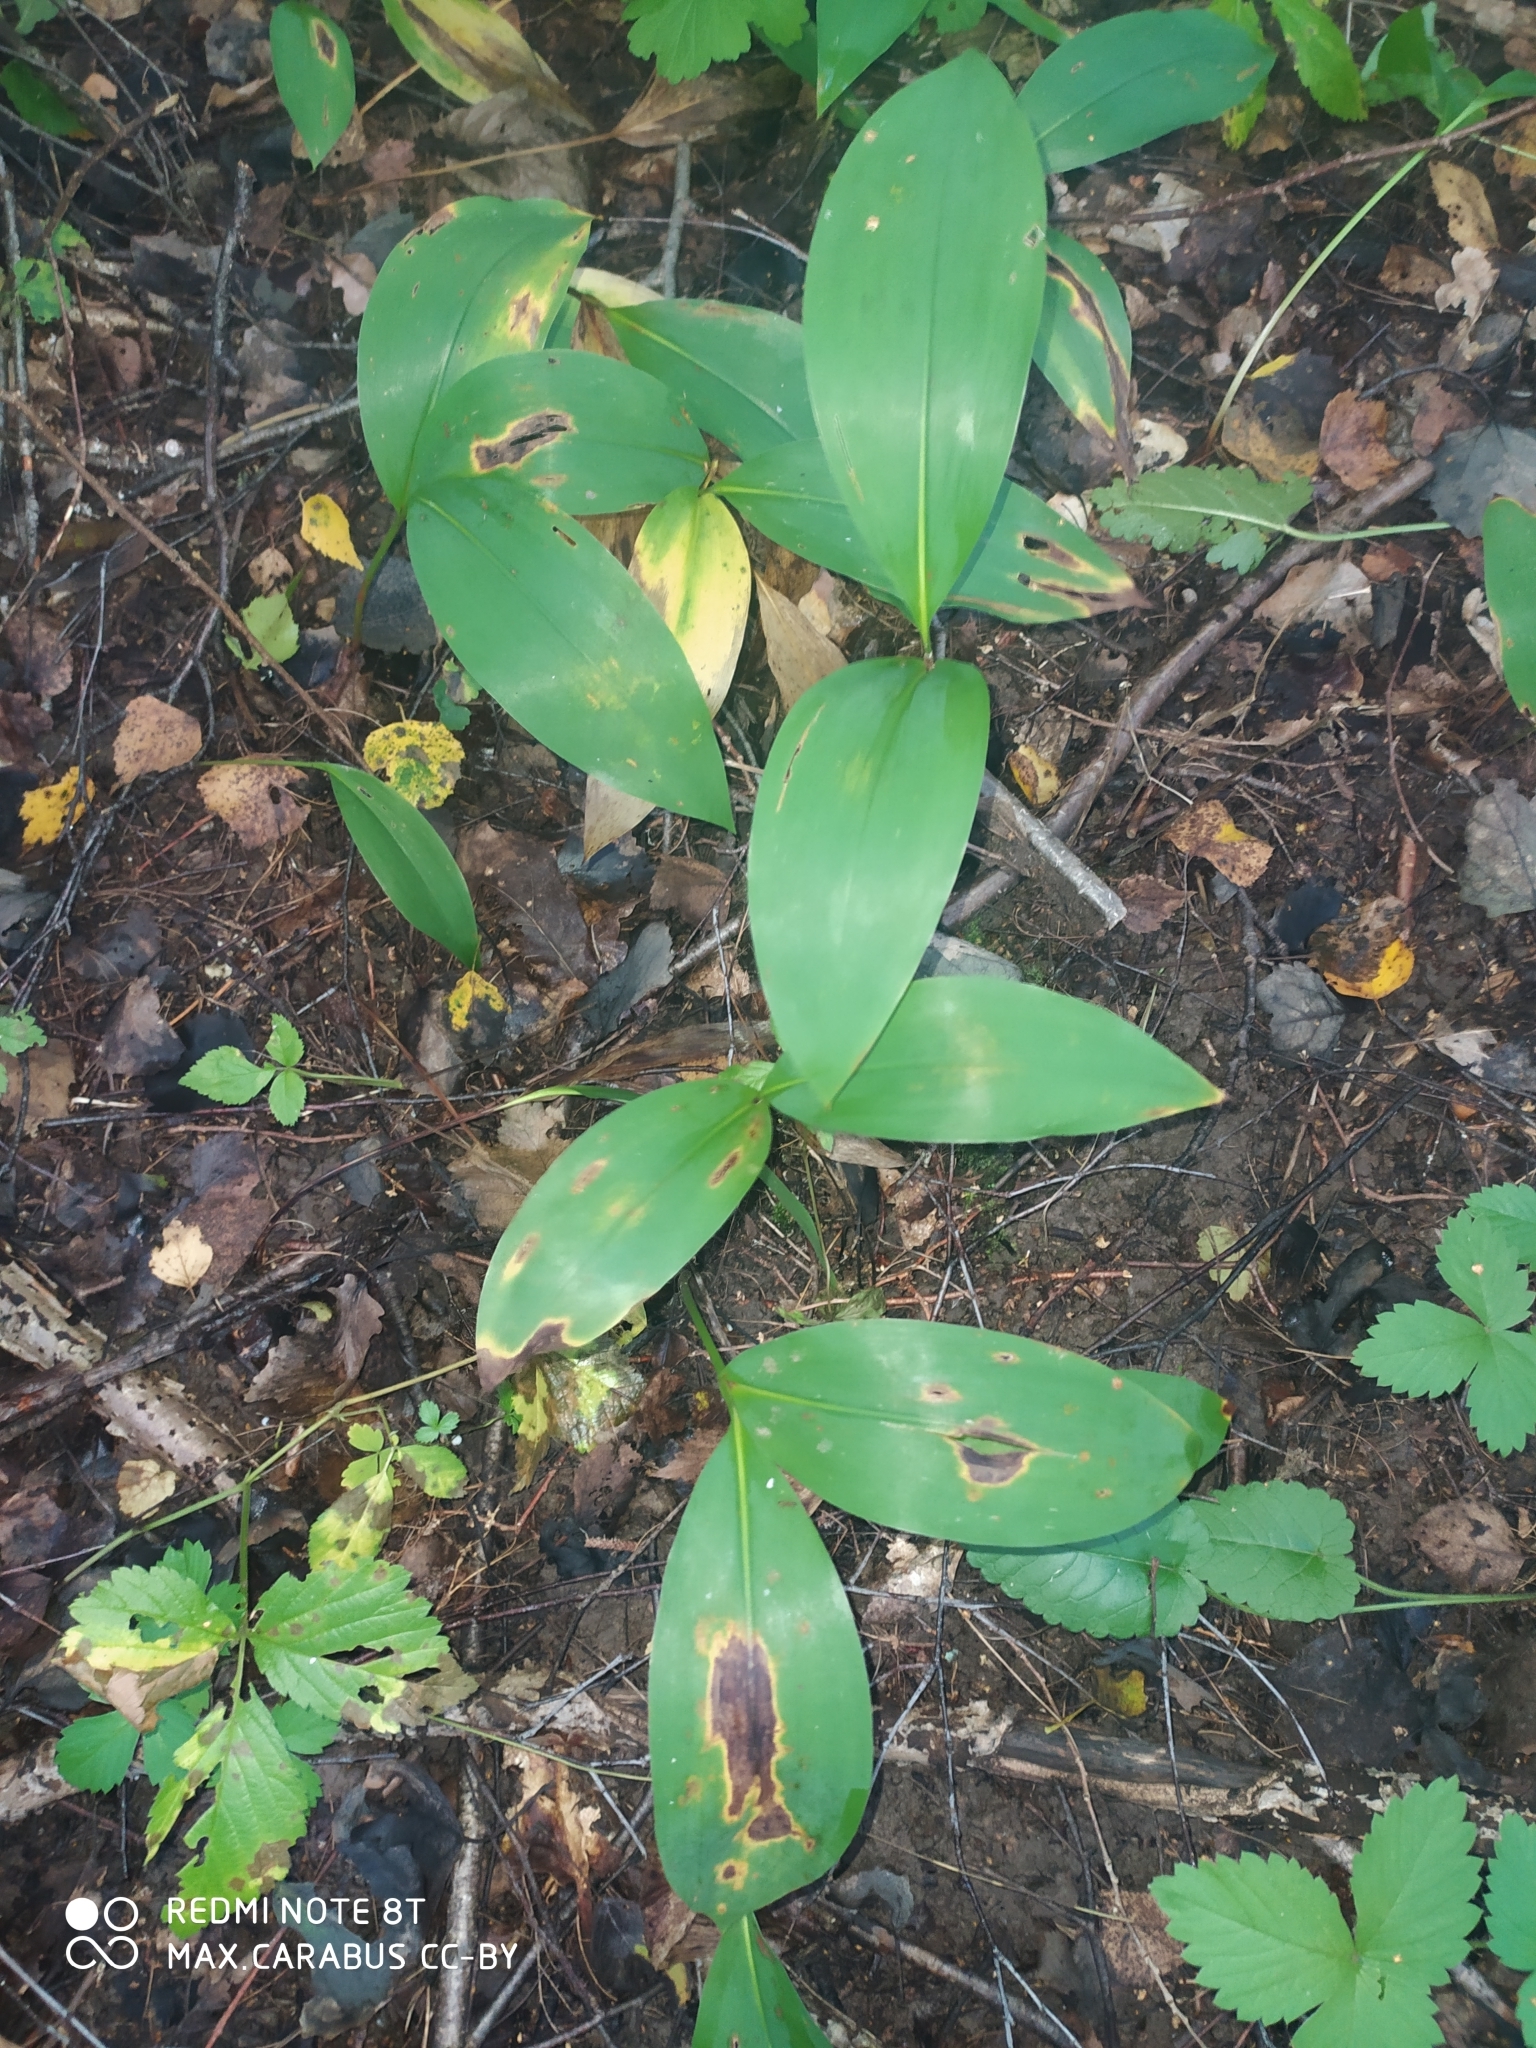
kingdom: Plantae
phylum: Tracheophyta
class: Liliopsida
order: Asparagales
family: Asparagaceae
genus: Convallaria
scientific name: Convallaria majalis
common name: Lily-of-the-valley
